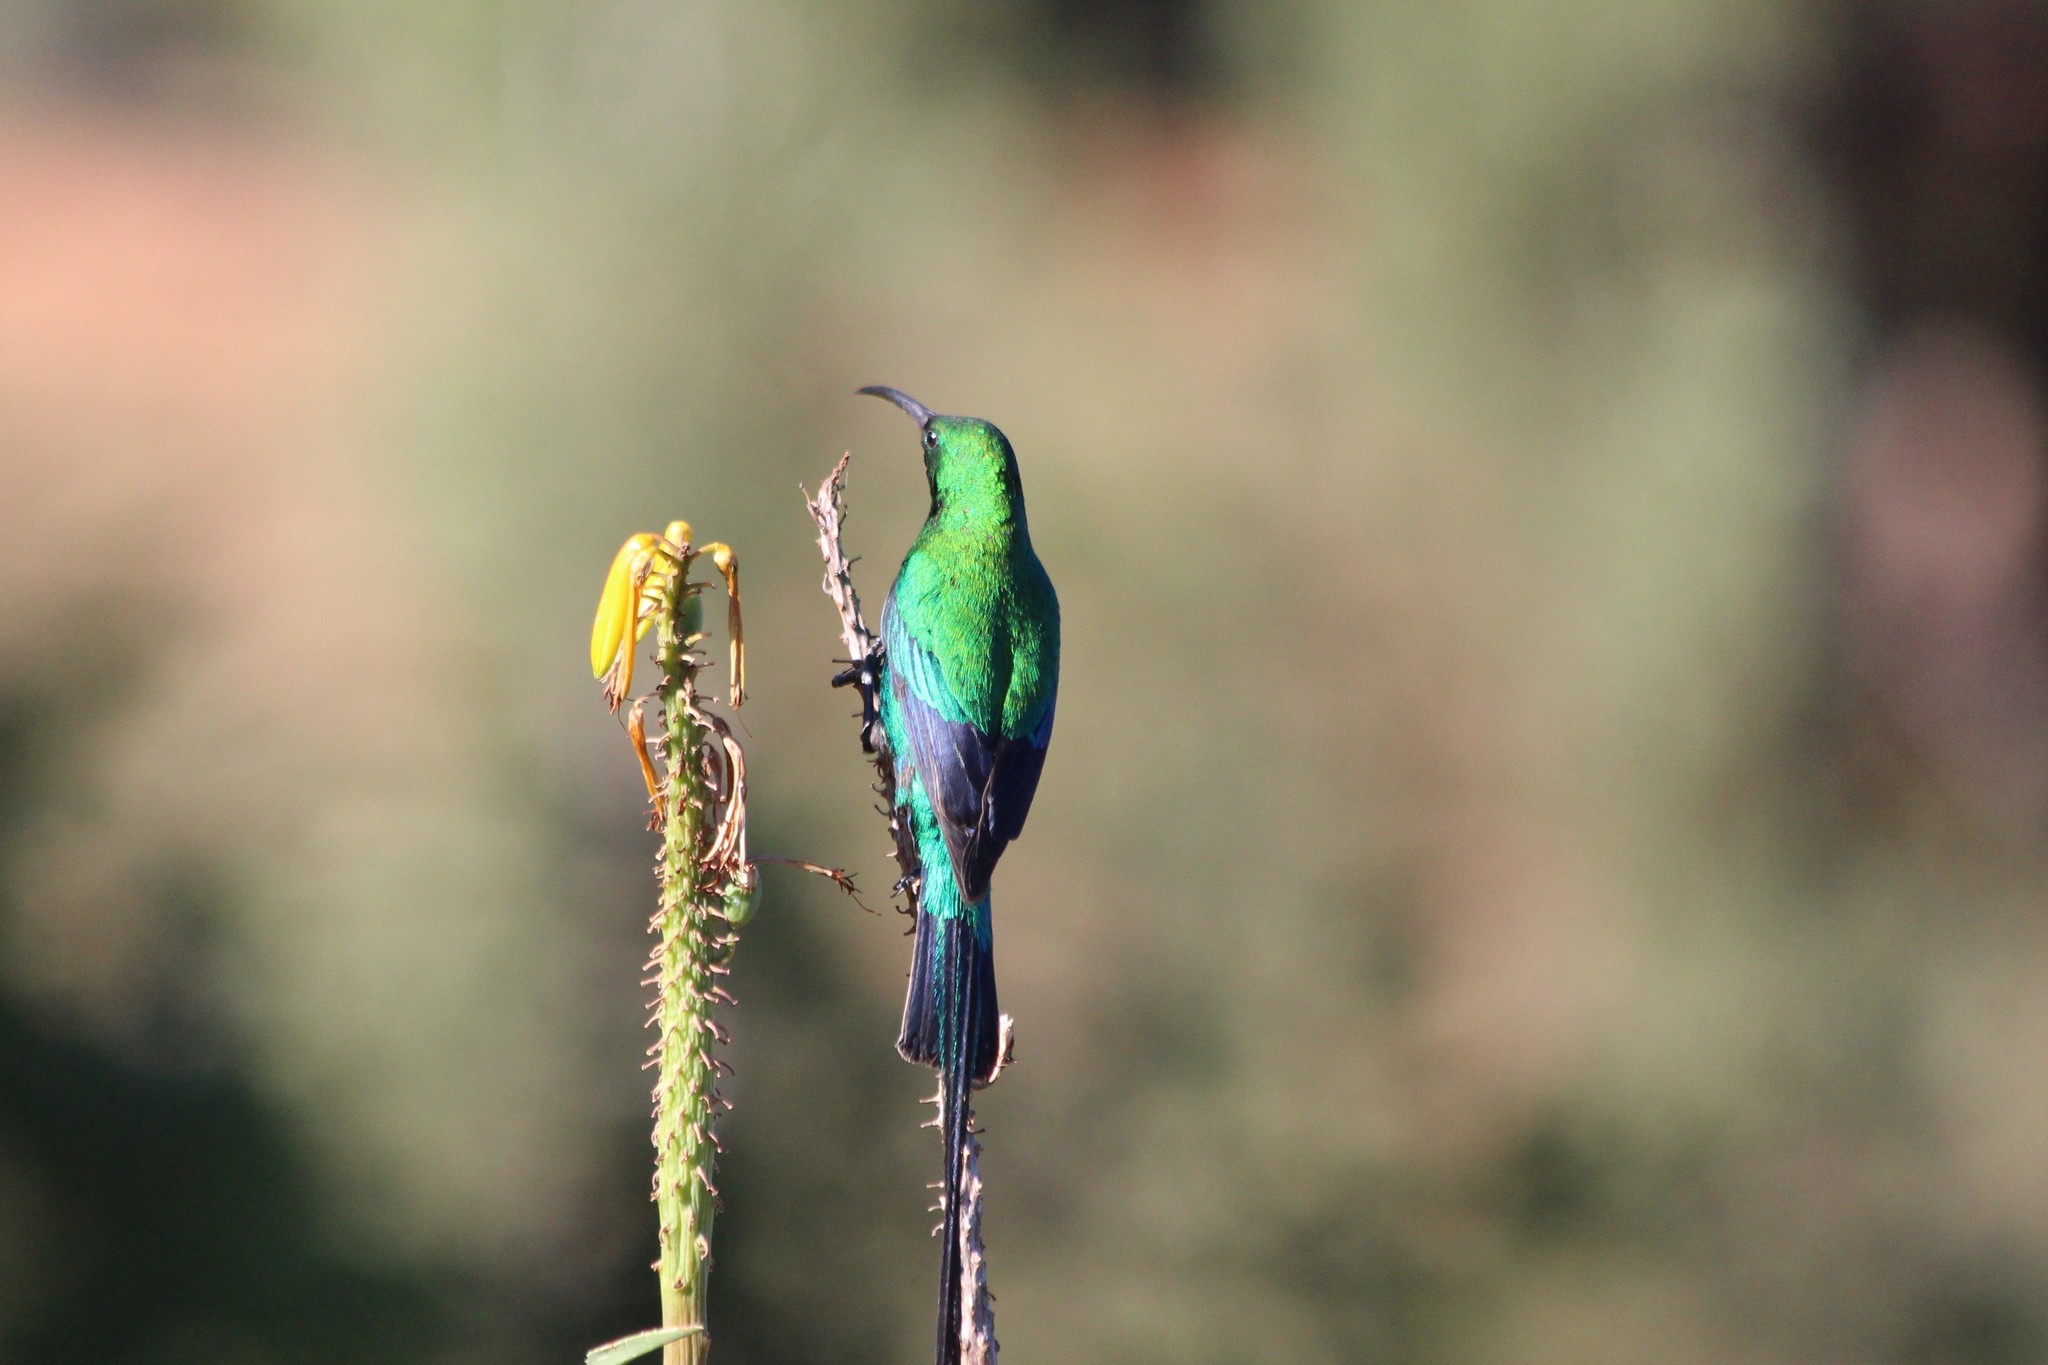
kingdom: Animalia
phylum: Chordata
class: Aves
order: Passeriformes
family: Nectariniidae
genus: Nectarinia
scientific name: Nectarinia famosa
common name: Malachite sunbird
